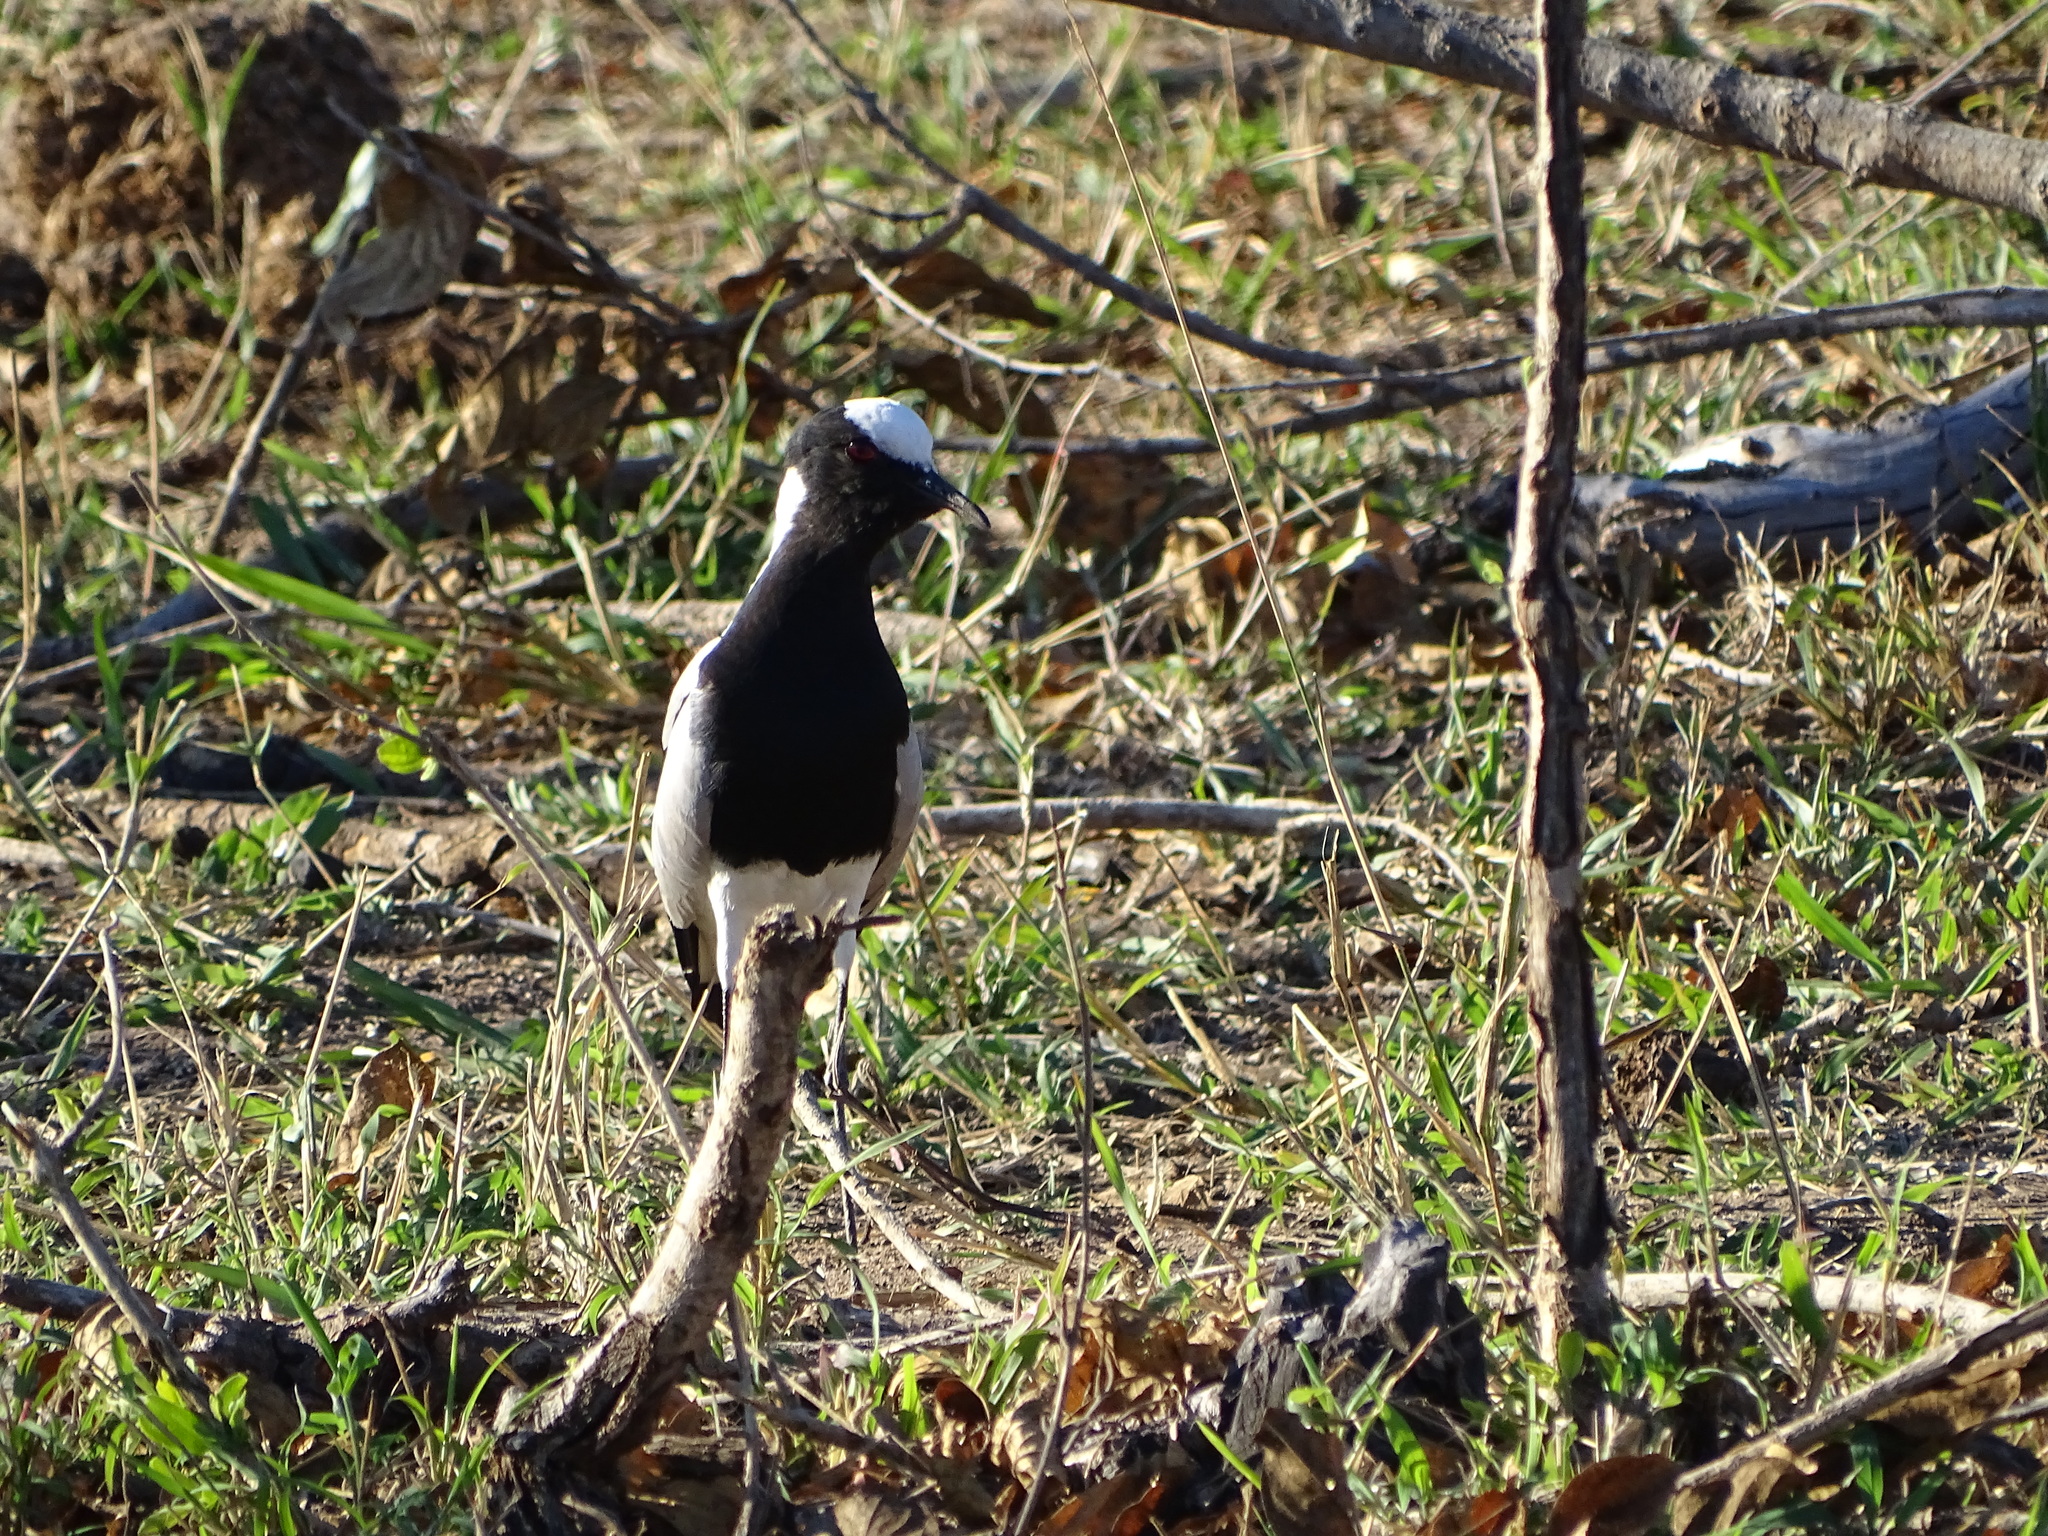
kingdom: Animalia
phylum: Chordata
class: Aves
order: Charadriiformes
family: Charadriidae
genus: Vanellus
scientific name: Vanellus armatus
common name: Blacksmith lapwing
